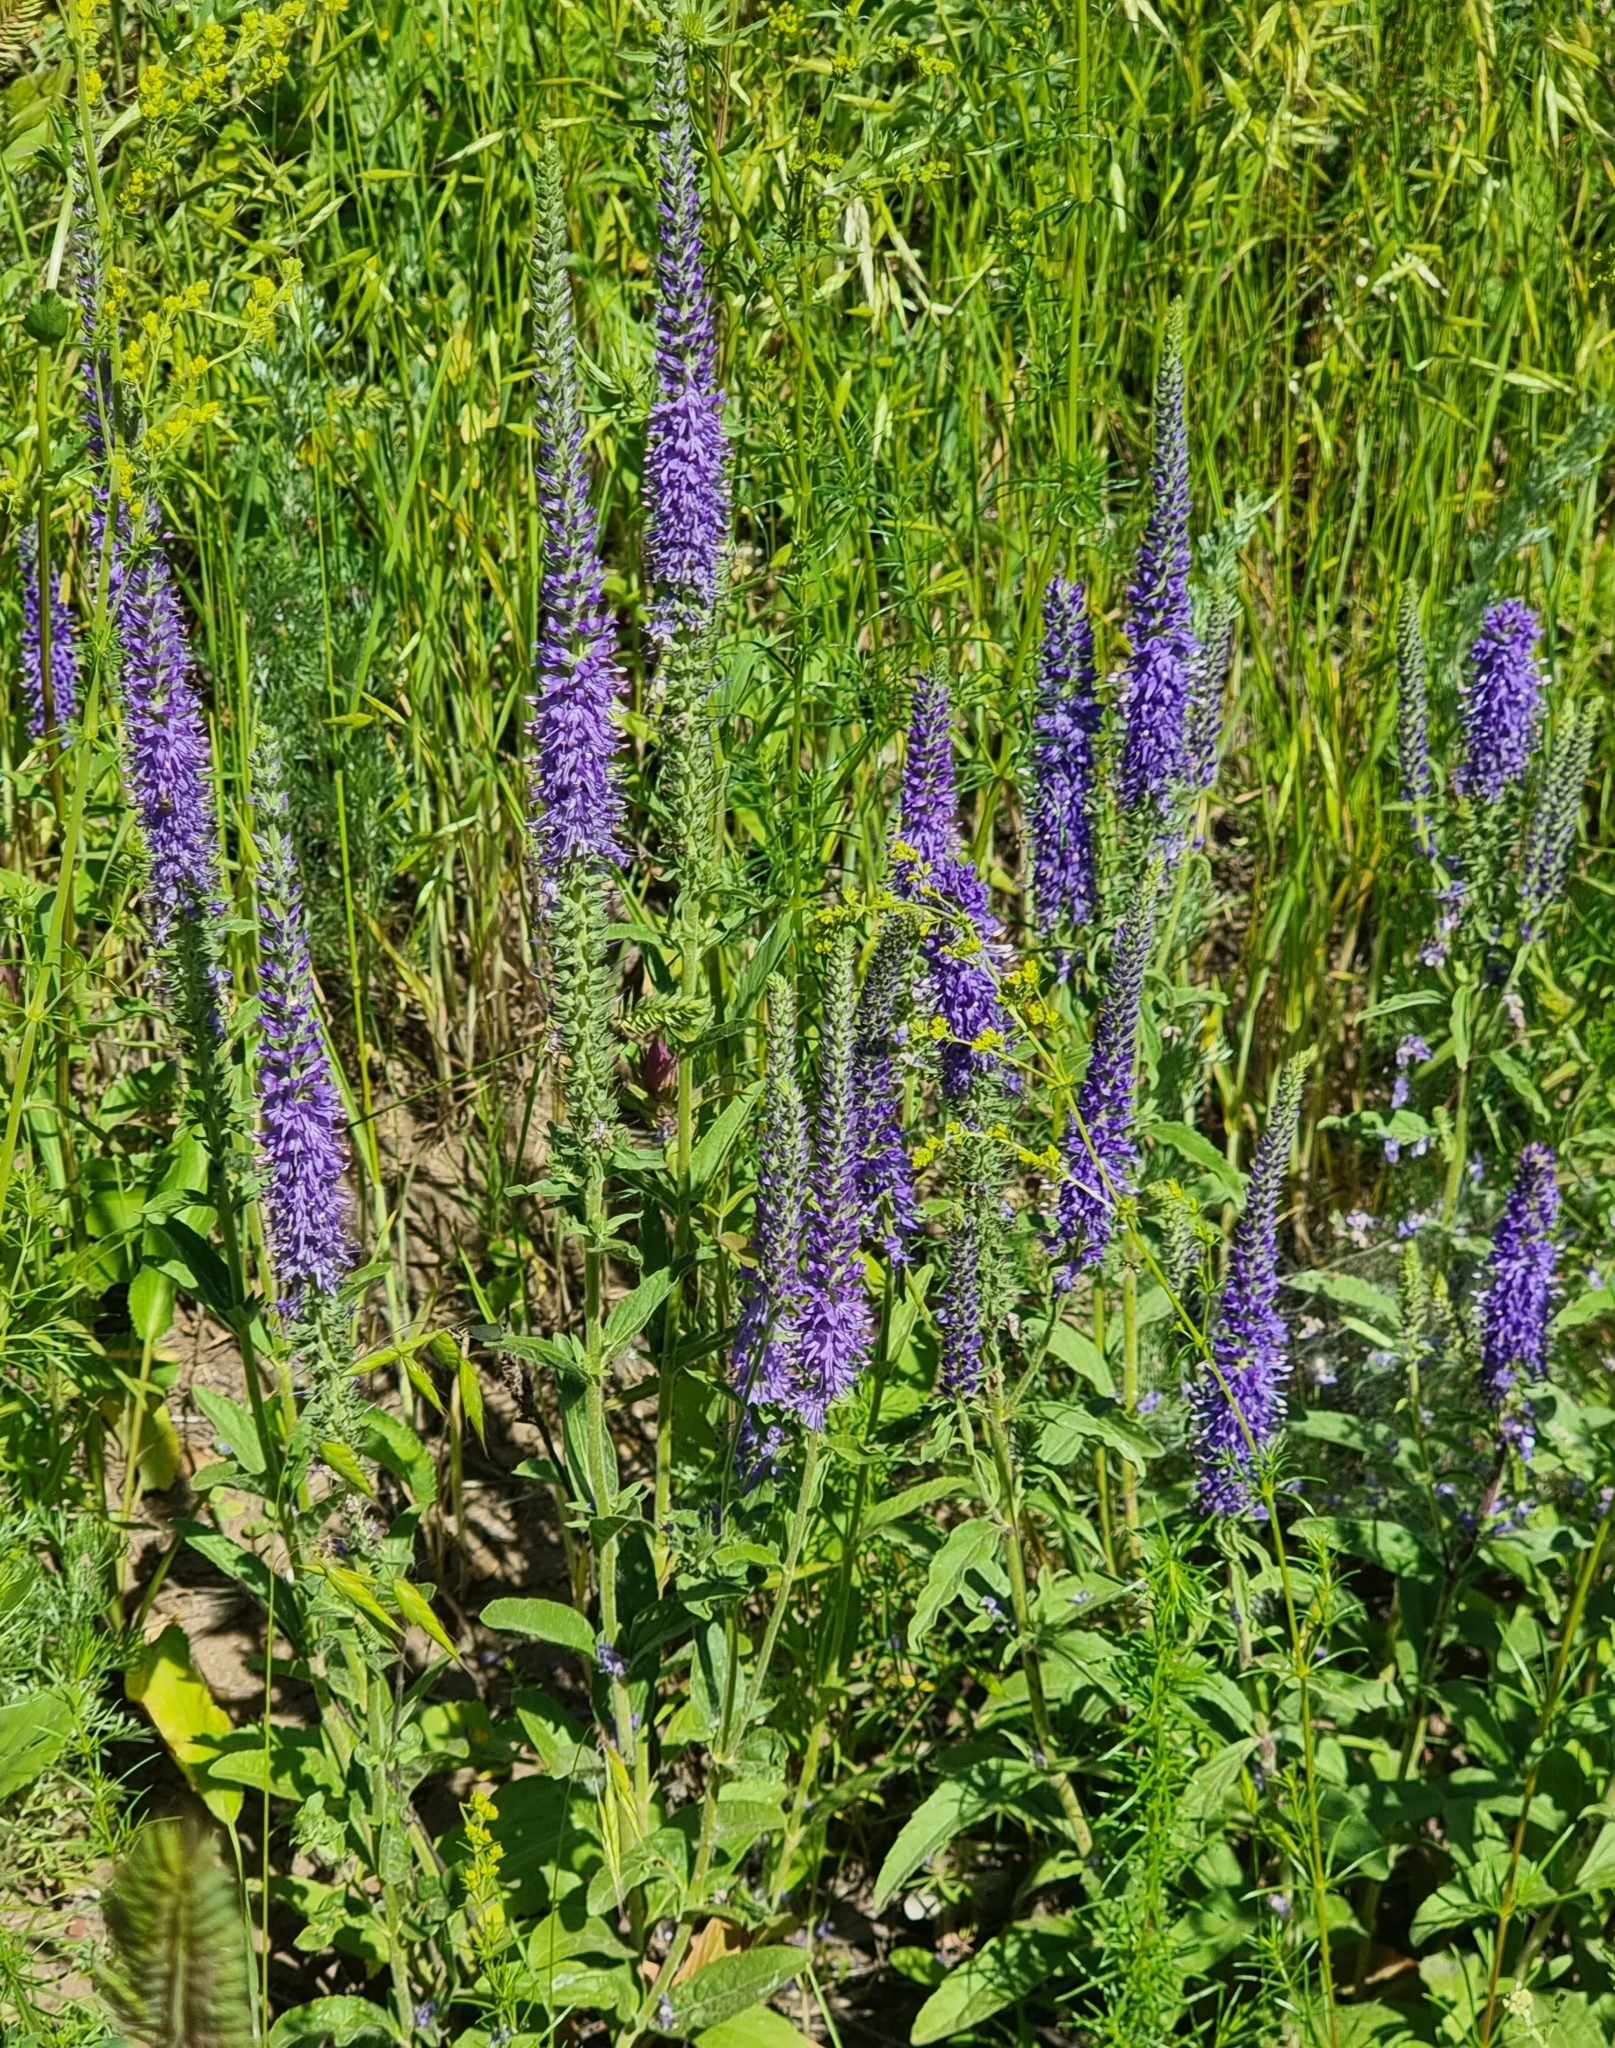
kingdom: Plantae
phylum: Tracheophyta
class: Magnoliopsida
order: Lamiales
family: Plantaginaceae
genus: Veronica
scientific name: Veronica barrelieri
